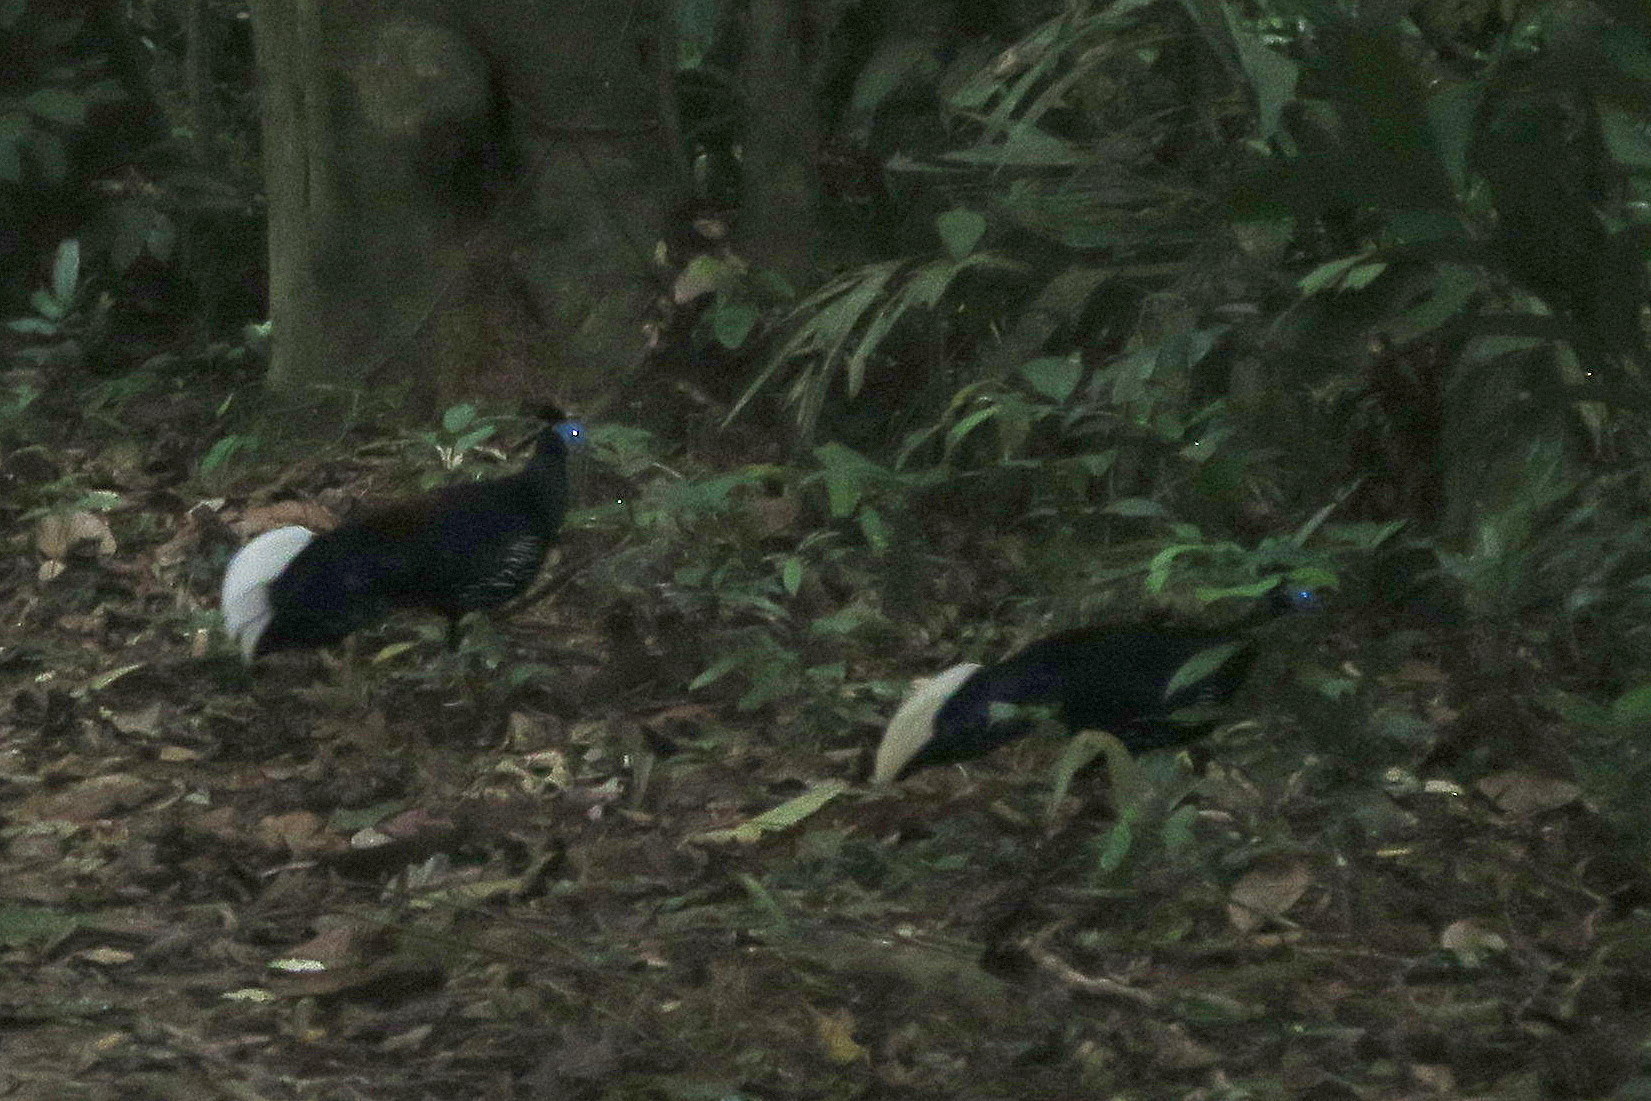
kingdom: Animalia
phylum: Chordata
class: Aves
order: Galliformes
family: Phasianidae
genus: Lophura
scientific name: Lophura ignita
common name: Crested fireback
